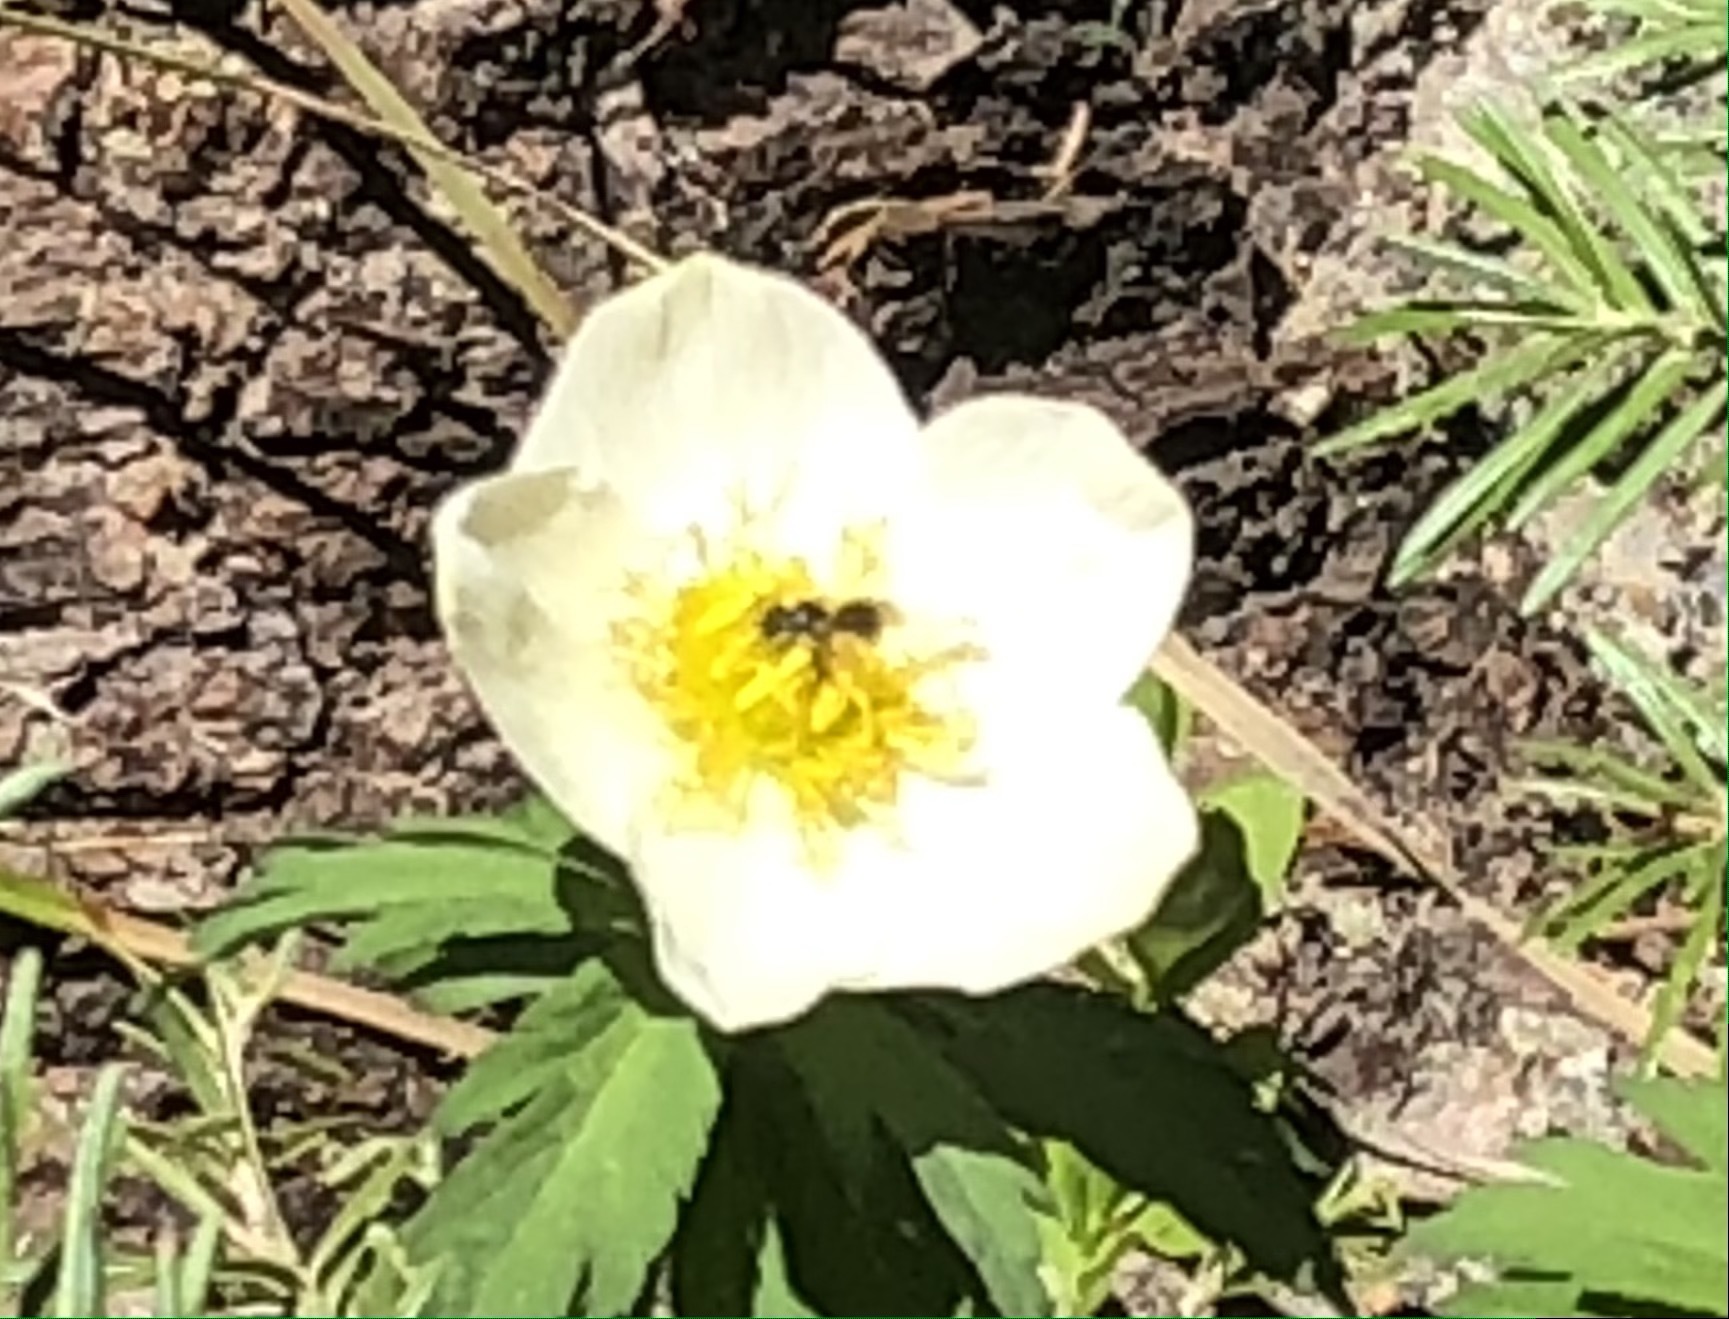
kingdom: Plantae
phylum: Tracheophyta
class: Magnoliopsida
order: Ranunculales
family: Ranunculaceae
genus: Trollius
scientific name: Trollius laxus
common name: American globeflower
